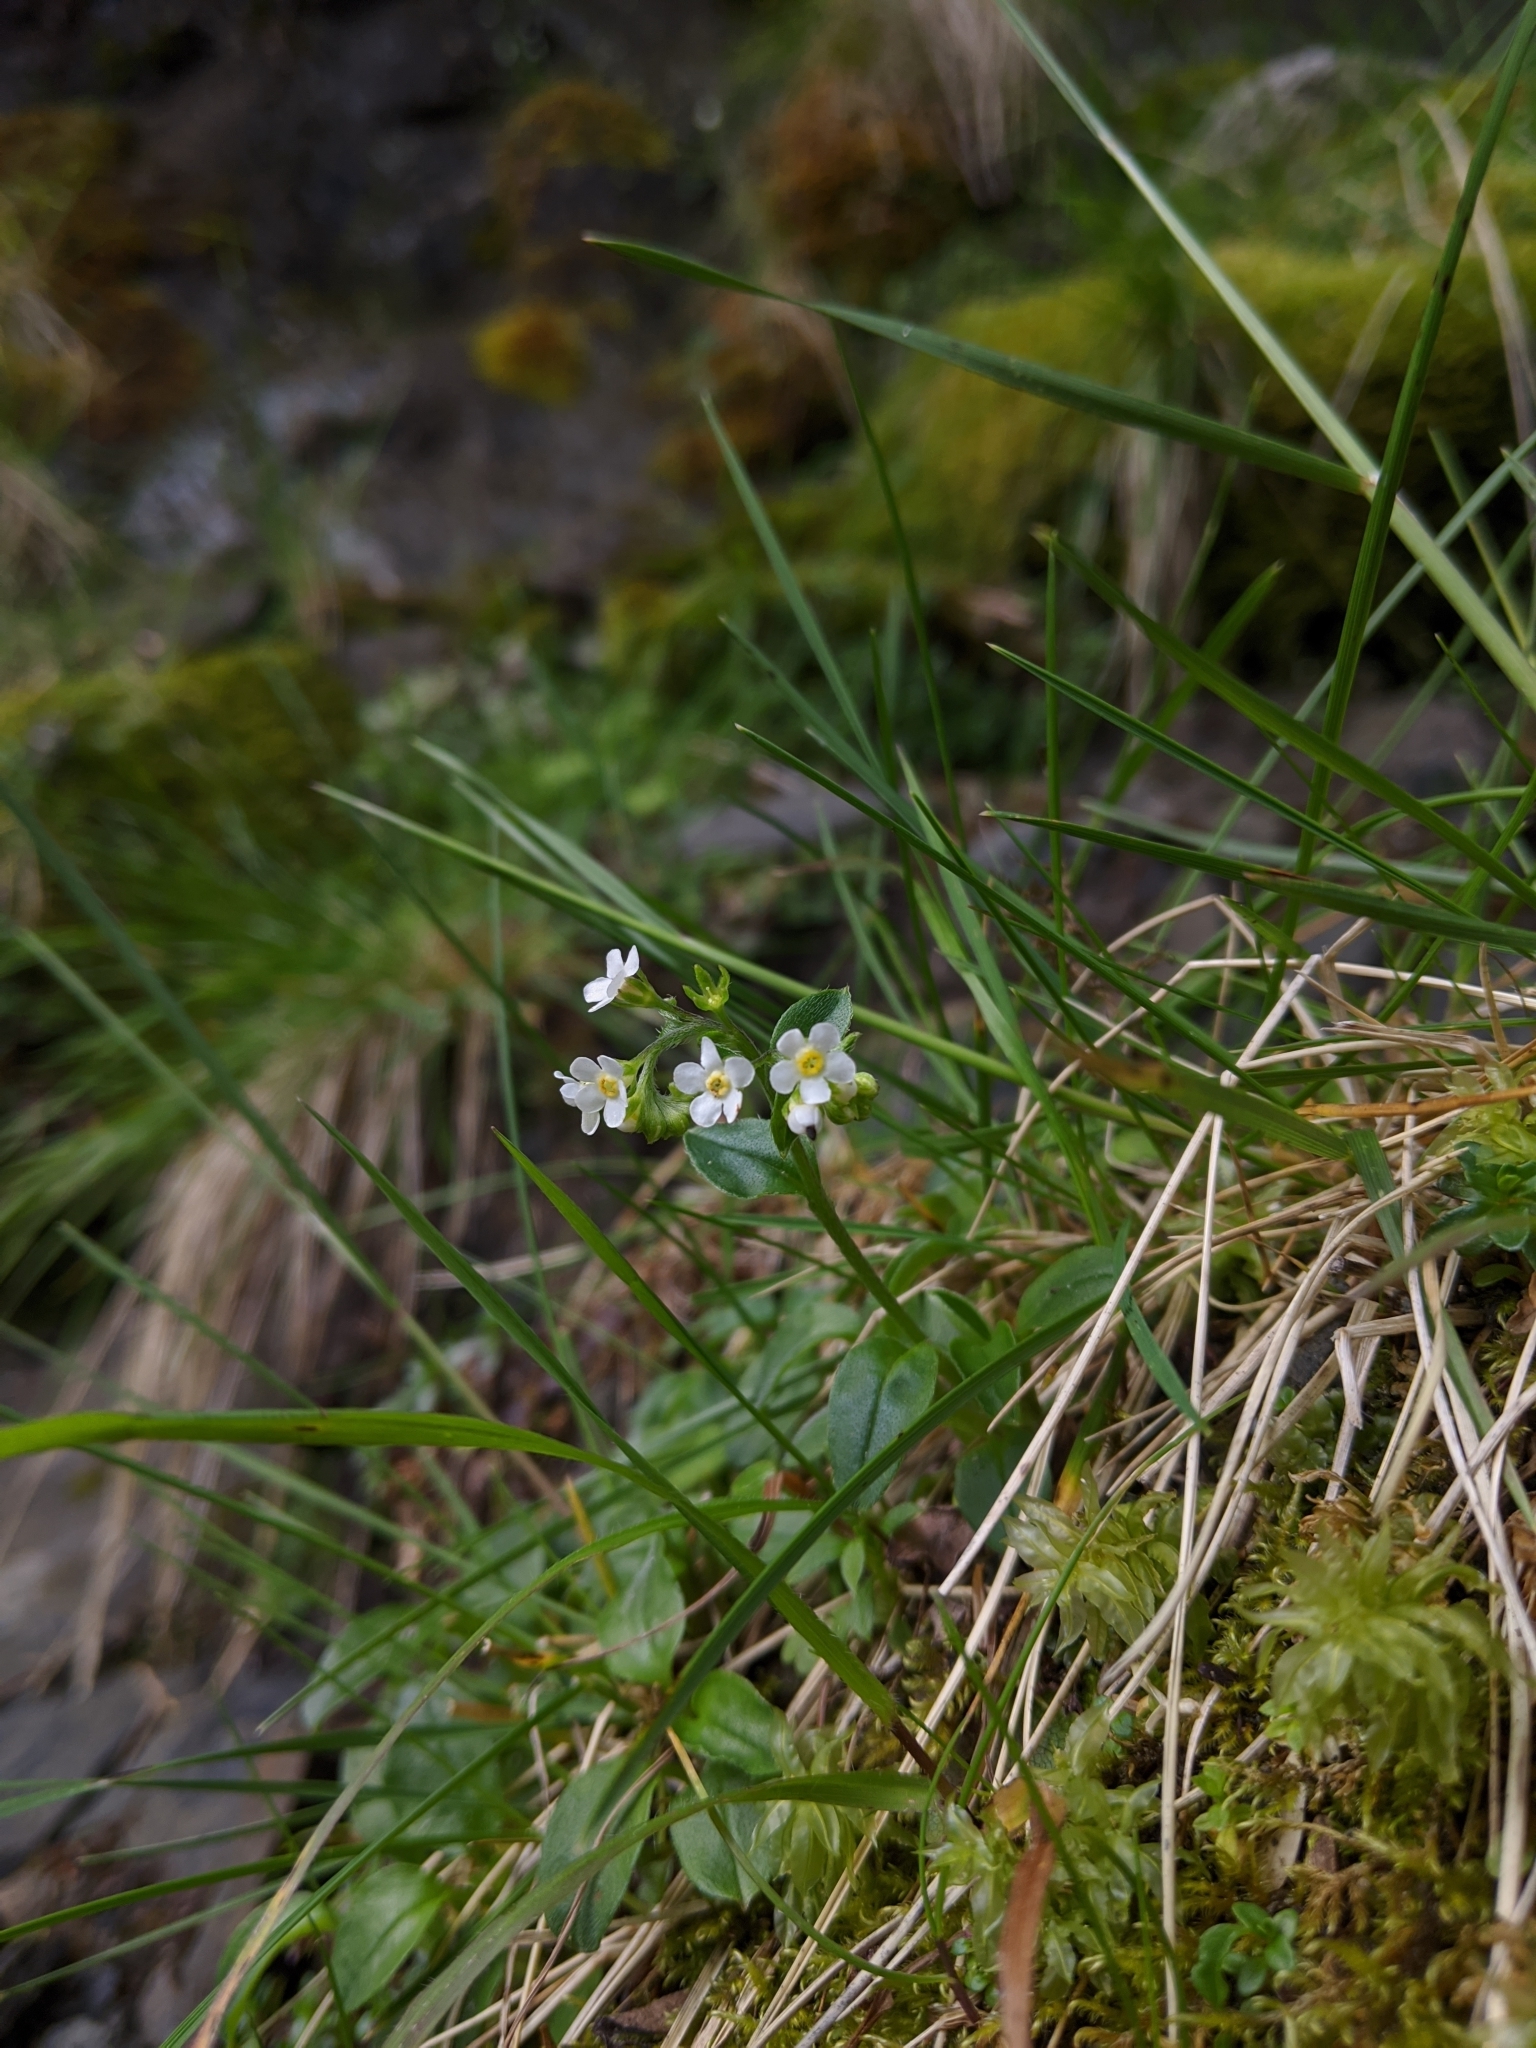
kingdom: Plantae
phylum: Tracheophyta
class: Magnoliopsida
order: Boraginales
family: Boraginaceae
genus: Trigonotis
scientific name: Trigonotis nankotaizanensis
